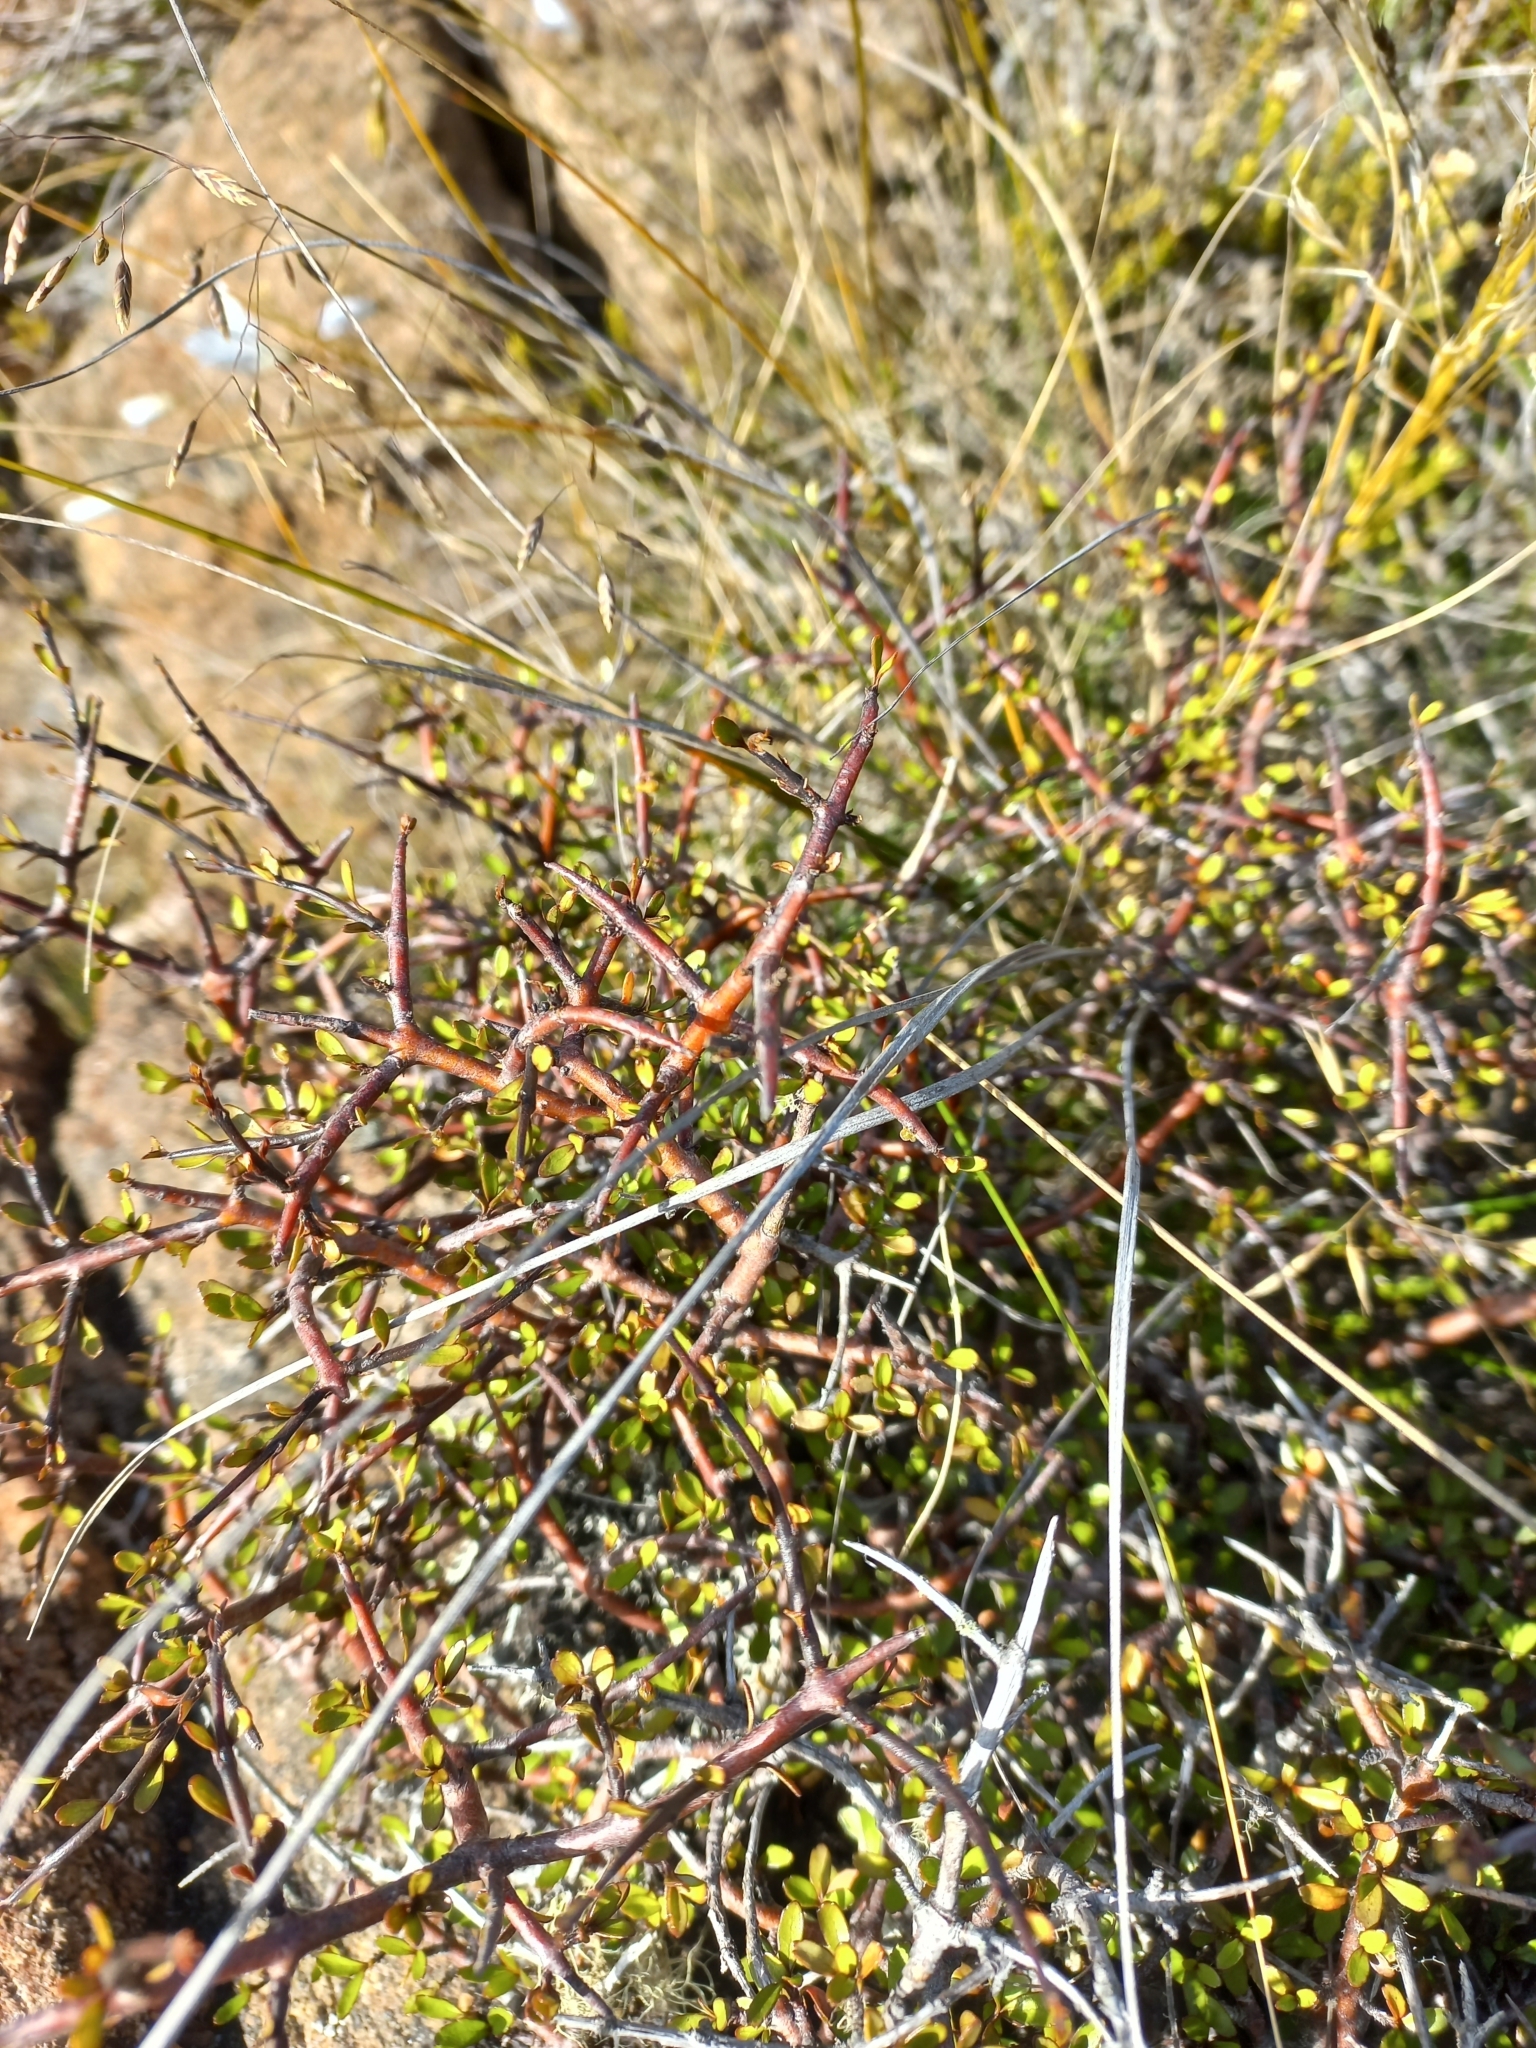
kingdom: Plantae
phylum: Tracheophyta
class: Magnoliopsida
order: Oxalidales
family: Elaeocarpaceae
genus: Aristotelia
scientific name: Aristotelia fruticosa
